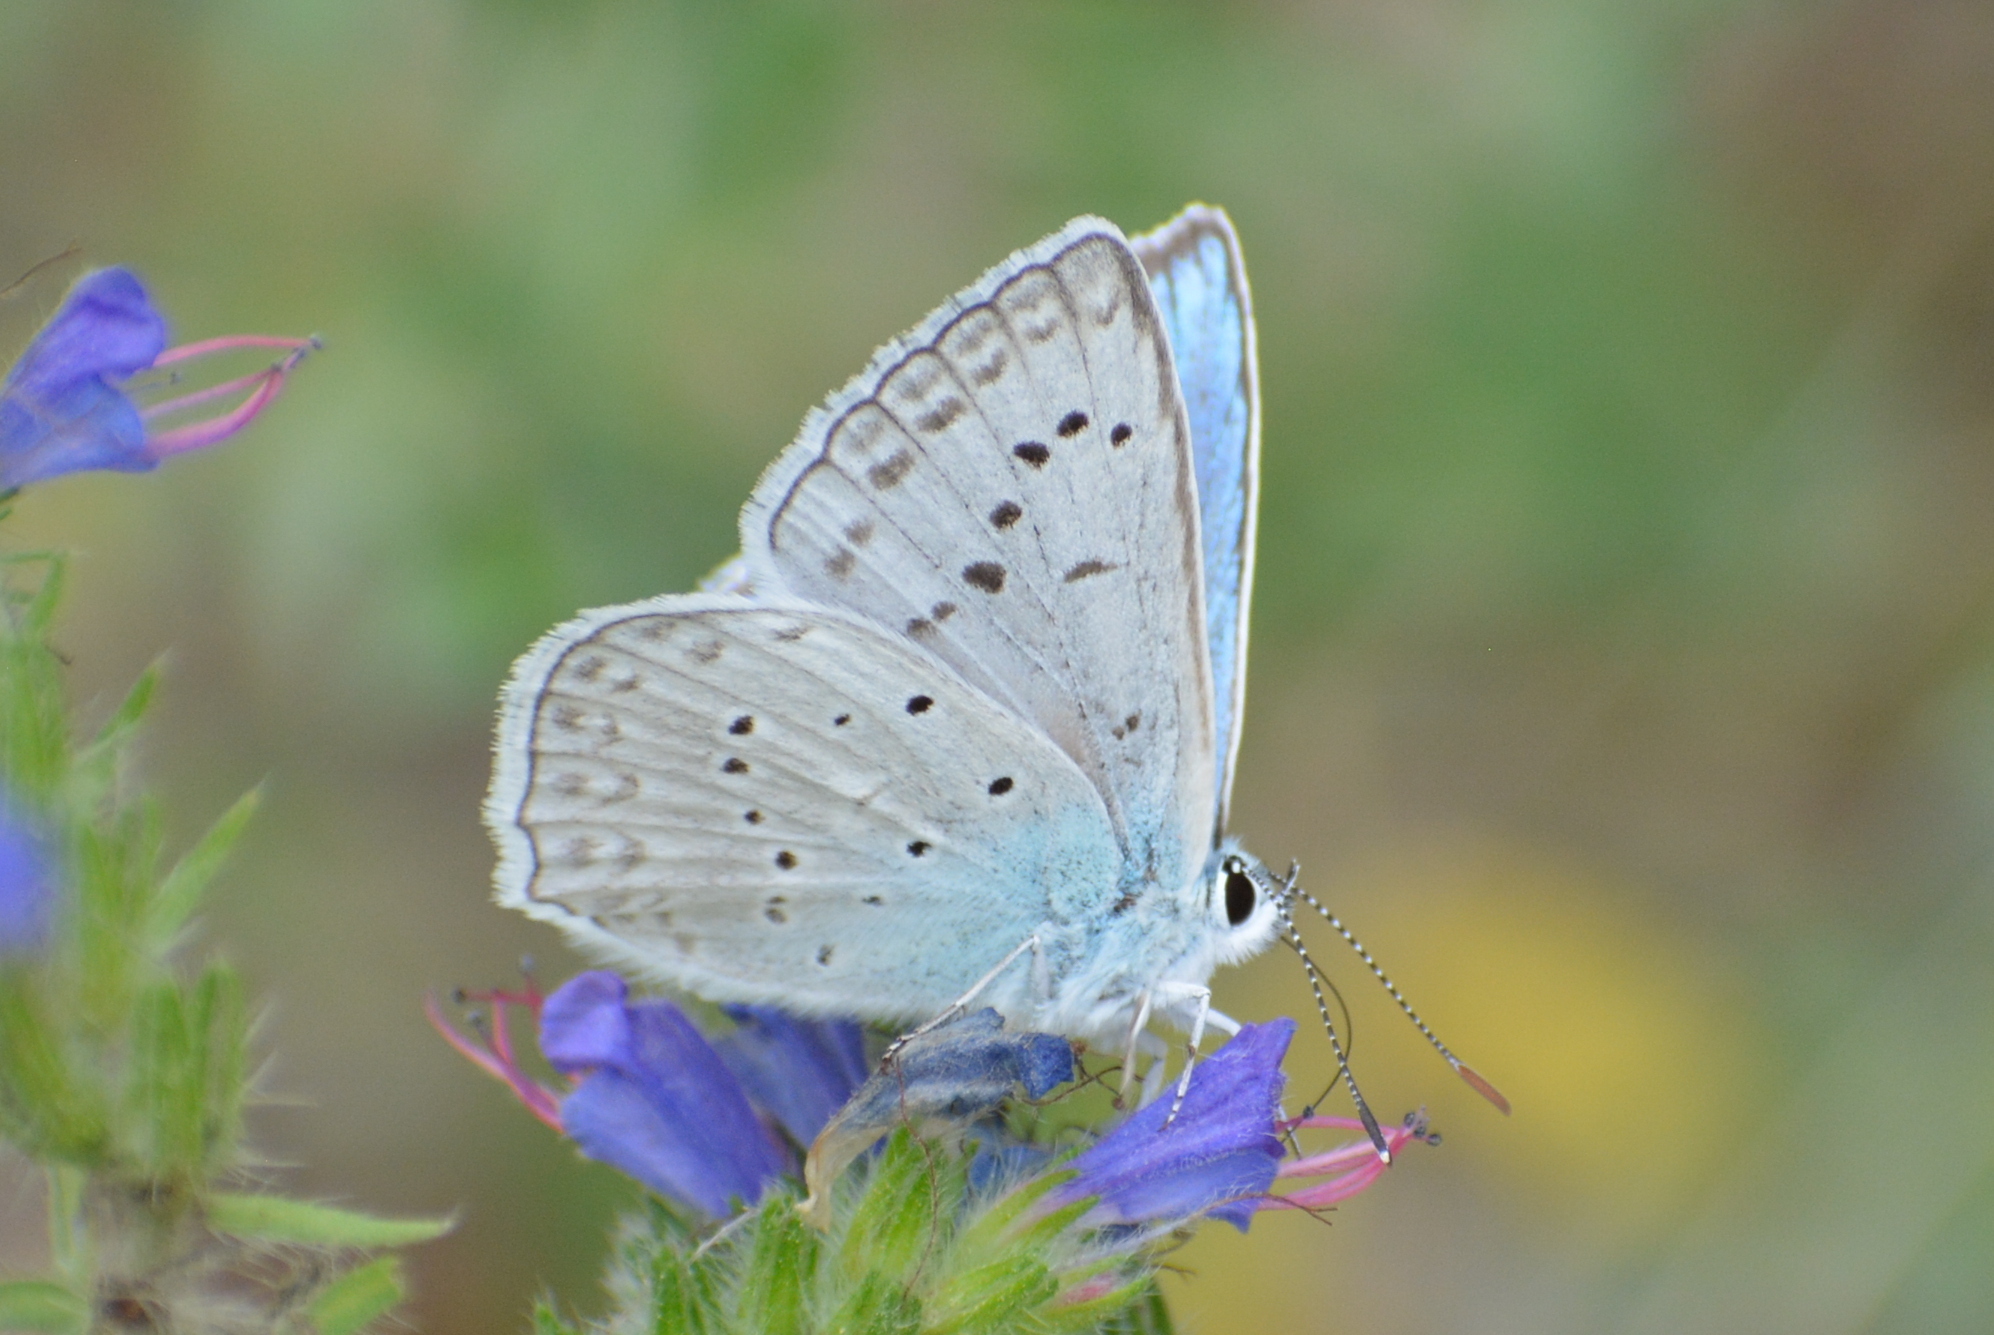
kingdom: Animalia
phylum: Arthropoda
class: Insecta
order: Lepidoptera
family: Lycaenidae
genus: Polyommatus
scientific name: Polyommatus daphnis
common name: Meleager's blue
